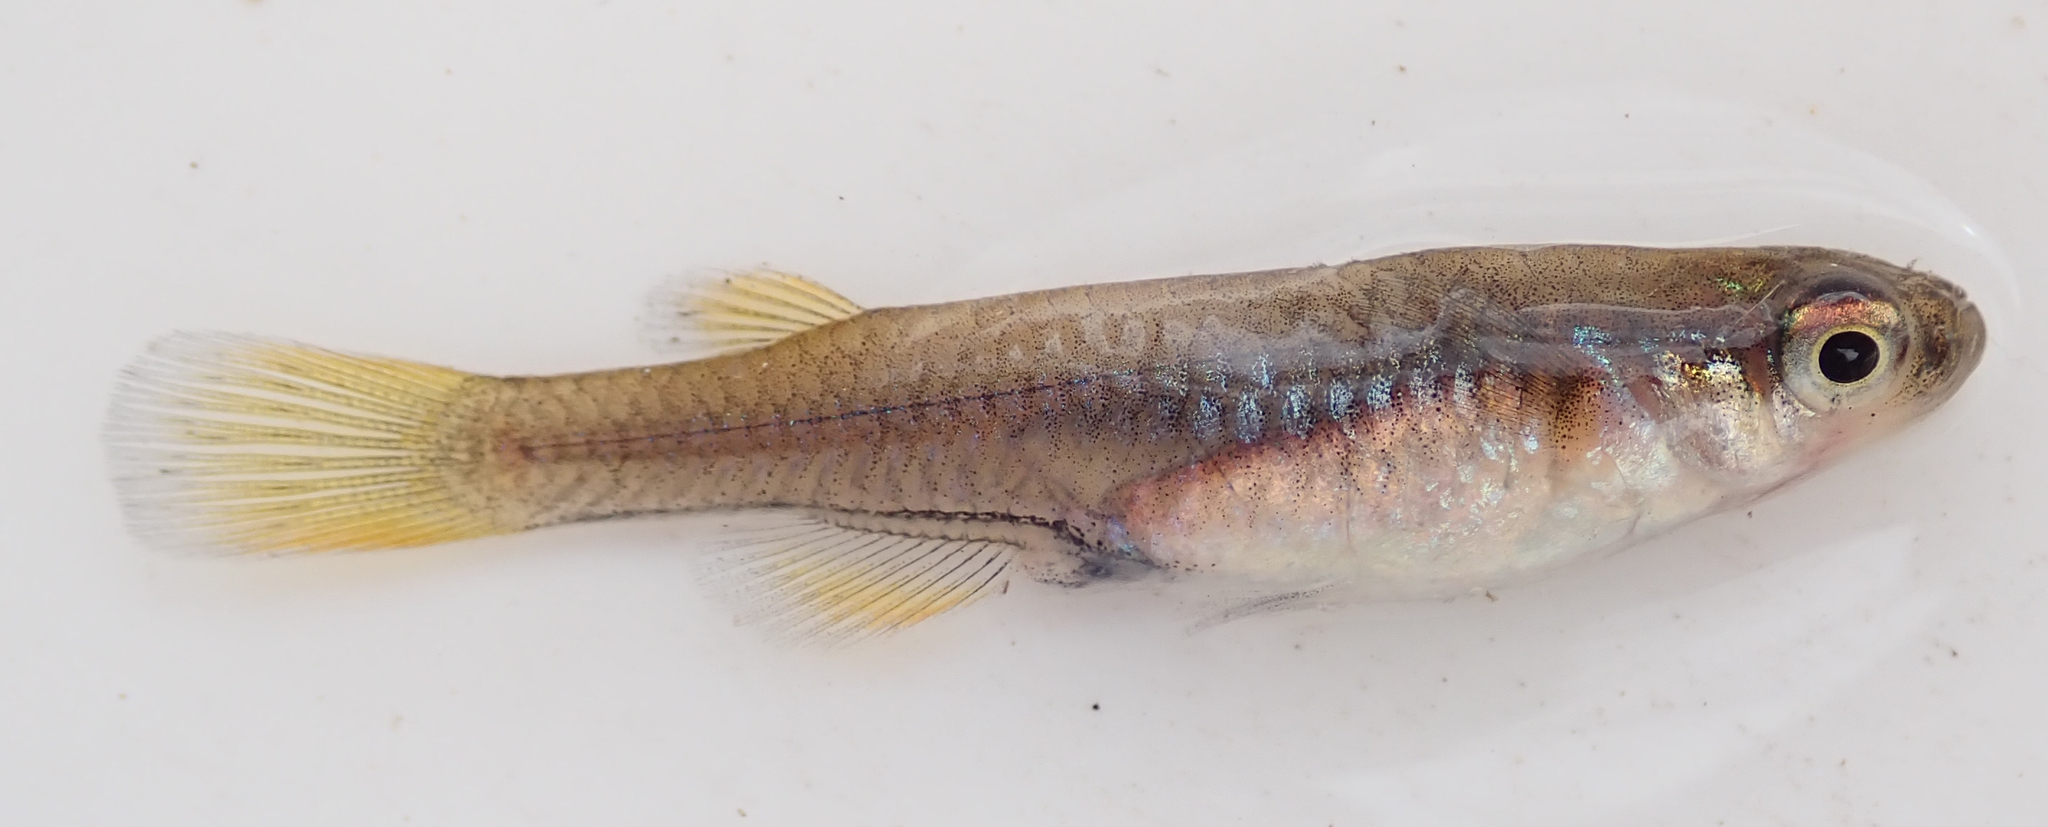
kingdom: Animalia
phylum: Chordata
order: Cyprinodontiformes
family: Poeciliidae
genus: Micropanchax
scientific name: Micropanchax johnstoni
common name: Johnston's topminnow
